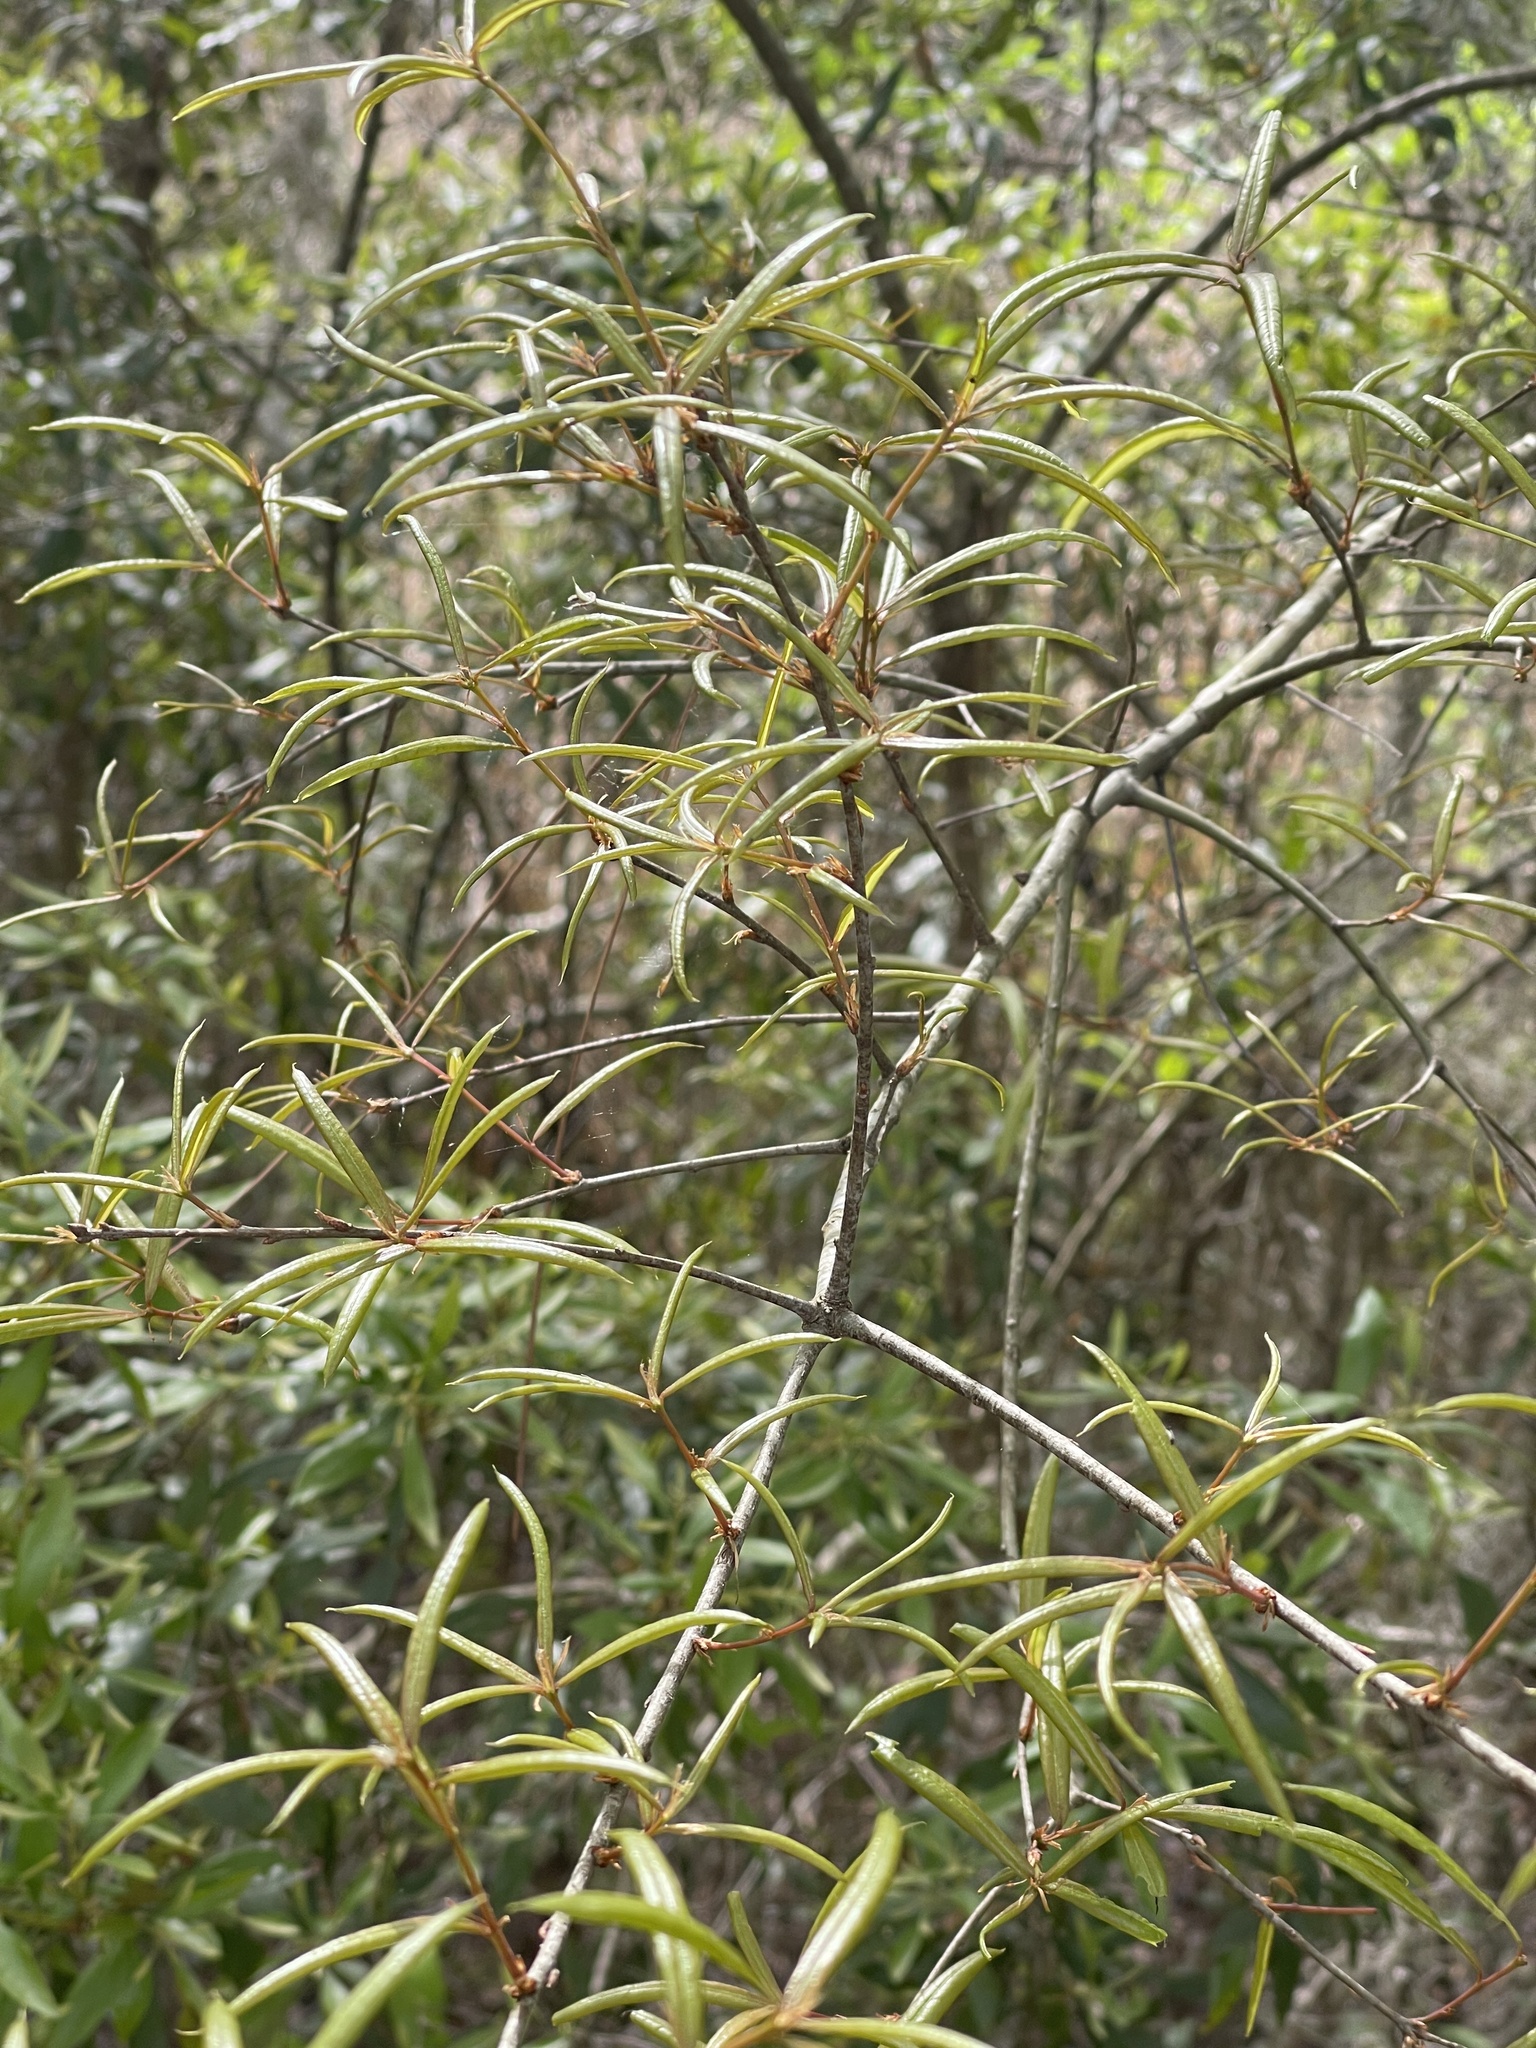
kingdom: Plantae
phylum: Tracheophyta
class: Magnoliopsida
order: Fagales
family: Fagaceae
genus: Quercus
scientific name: Quercus phellos
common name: Willow oak
